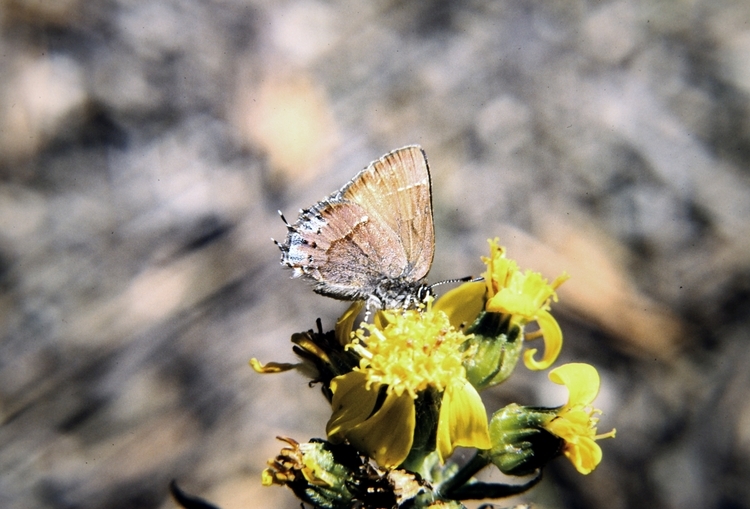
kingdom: Animalia
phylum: Arthropoda
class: Insecta
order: Lepidoptera
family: Lycaenidae
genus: Mitoura
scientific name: Mitoura nelsoni
